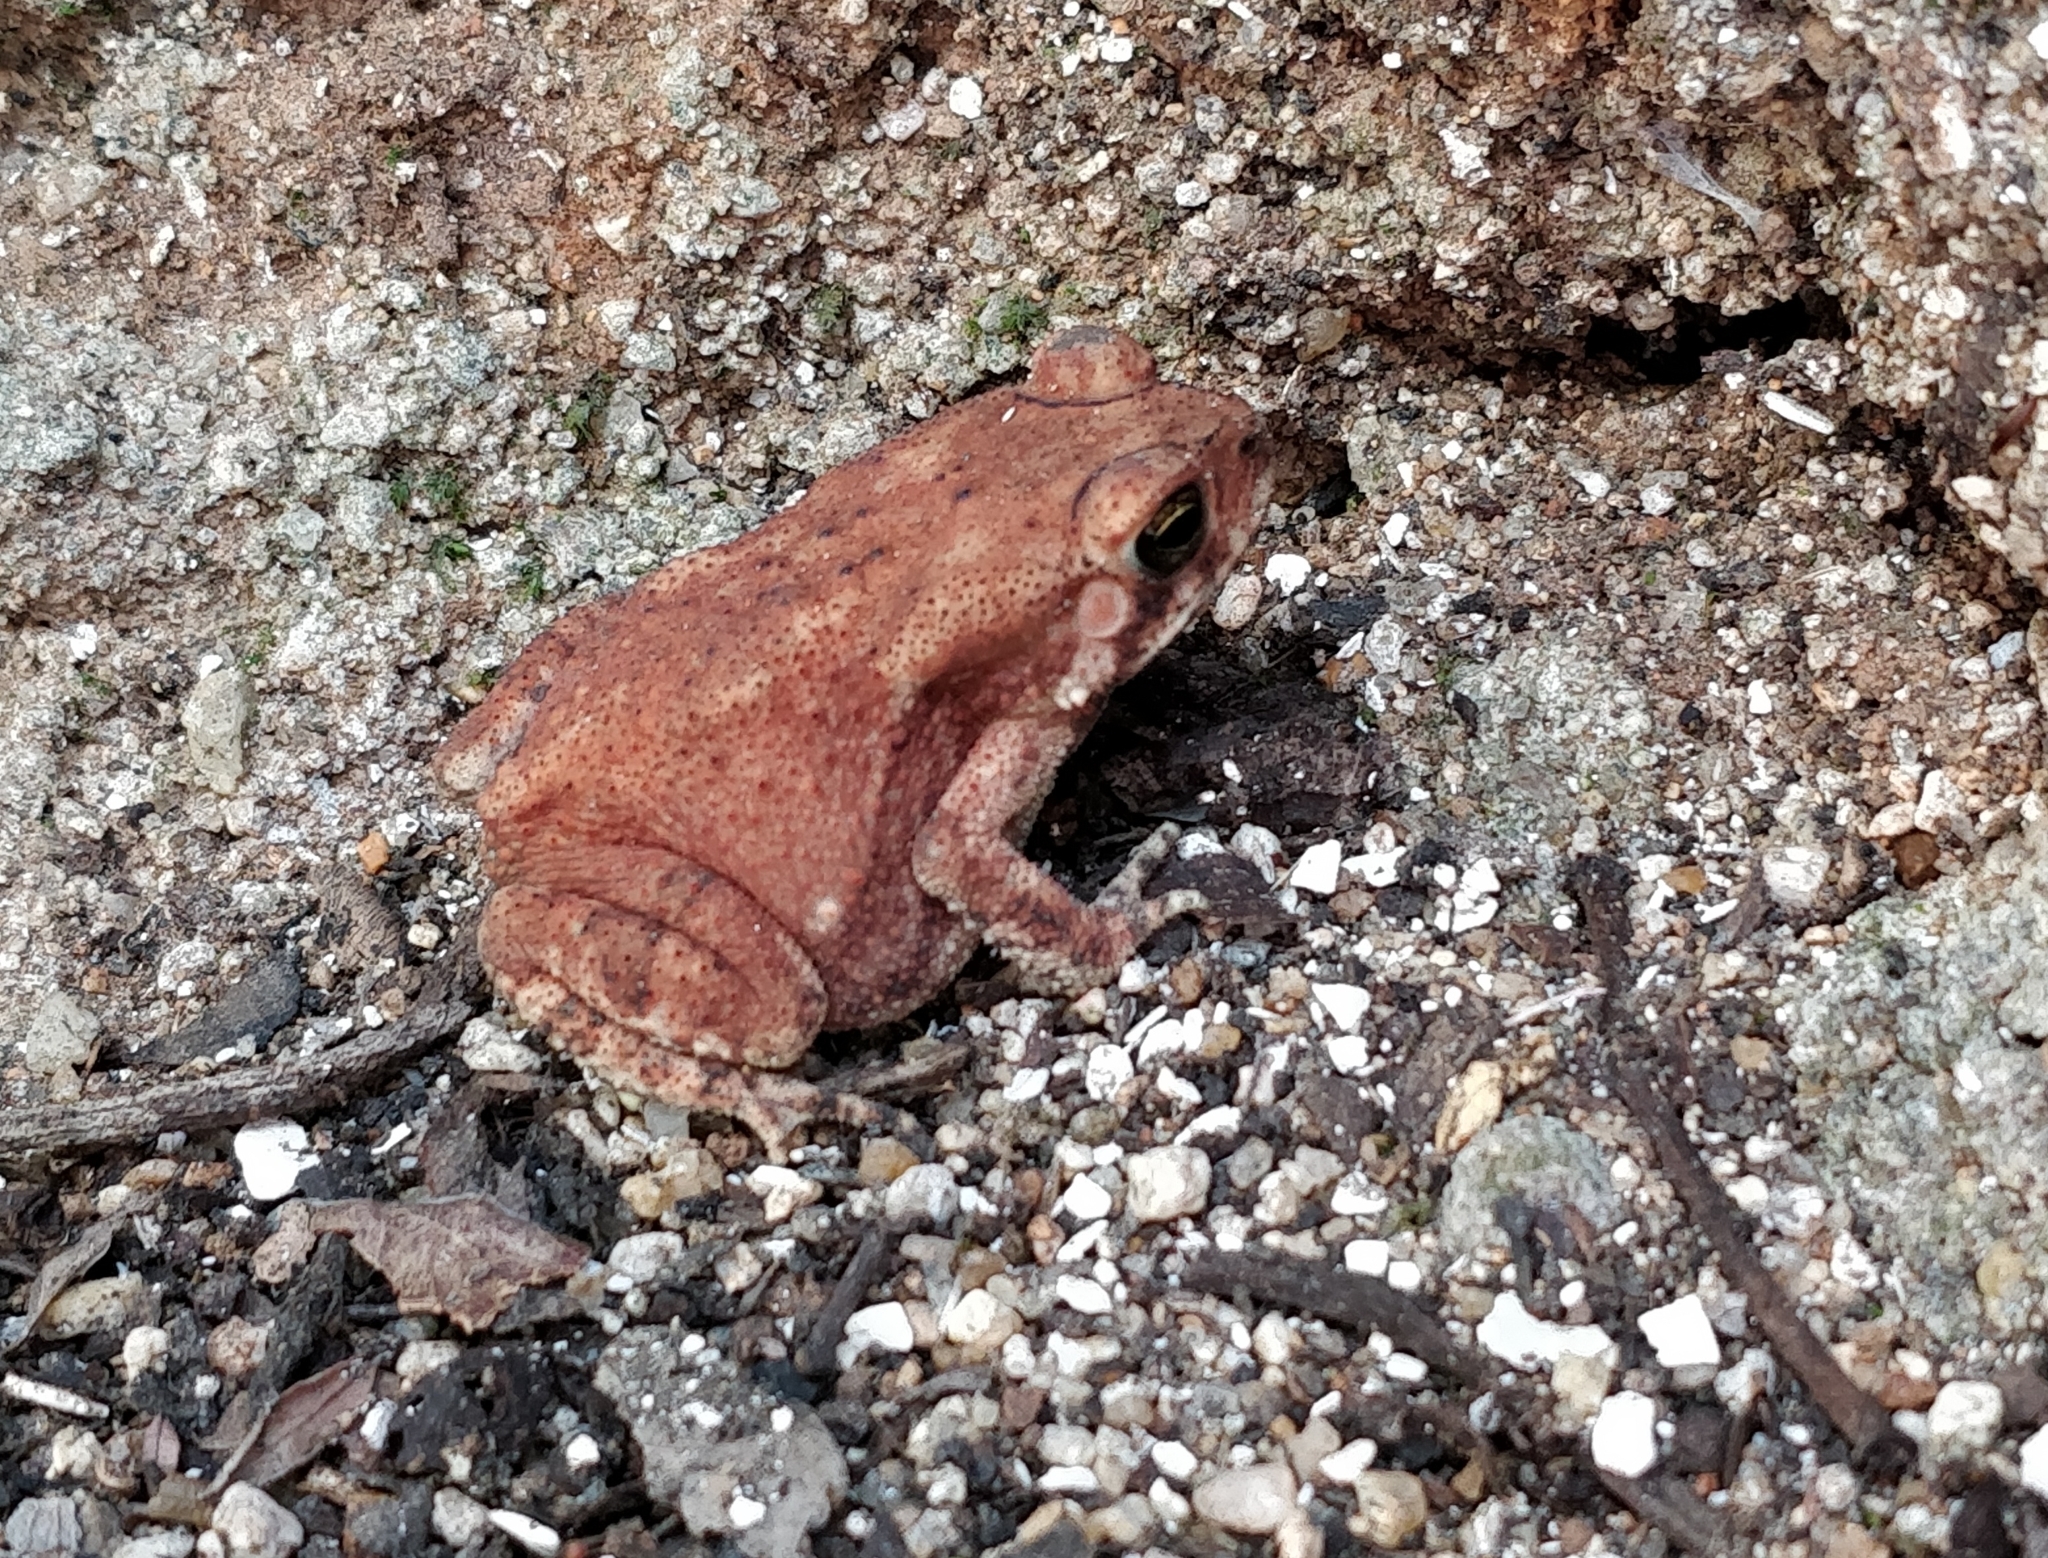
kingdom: Animalia
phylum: Chordata
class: Amphibia
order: Anura
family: Bufonidae
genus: Duttaphrynus
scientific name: Duttaphrynus melanostictus
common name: Common sunda toad
